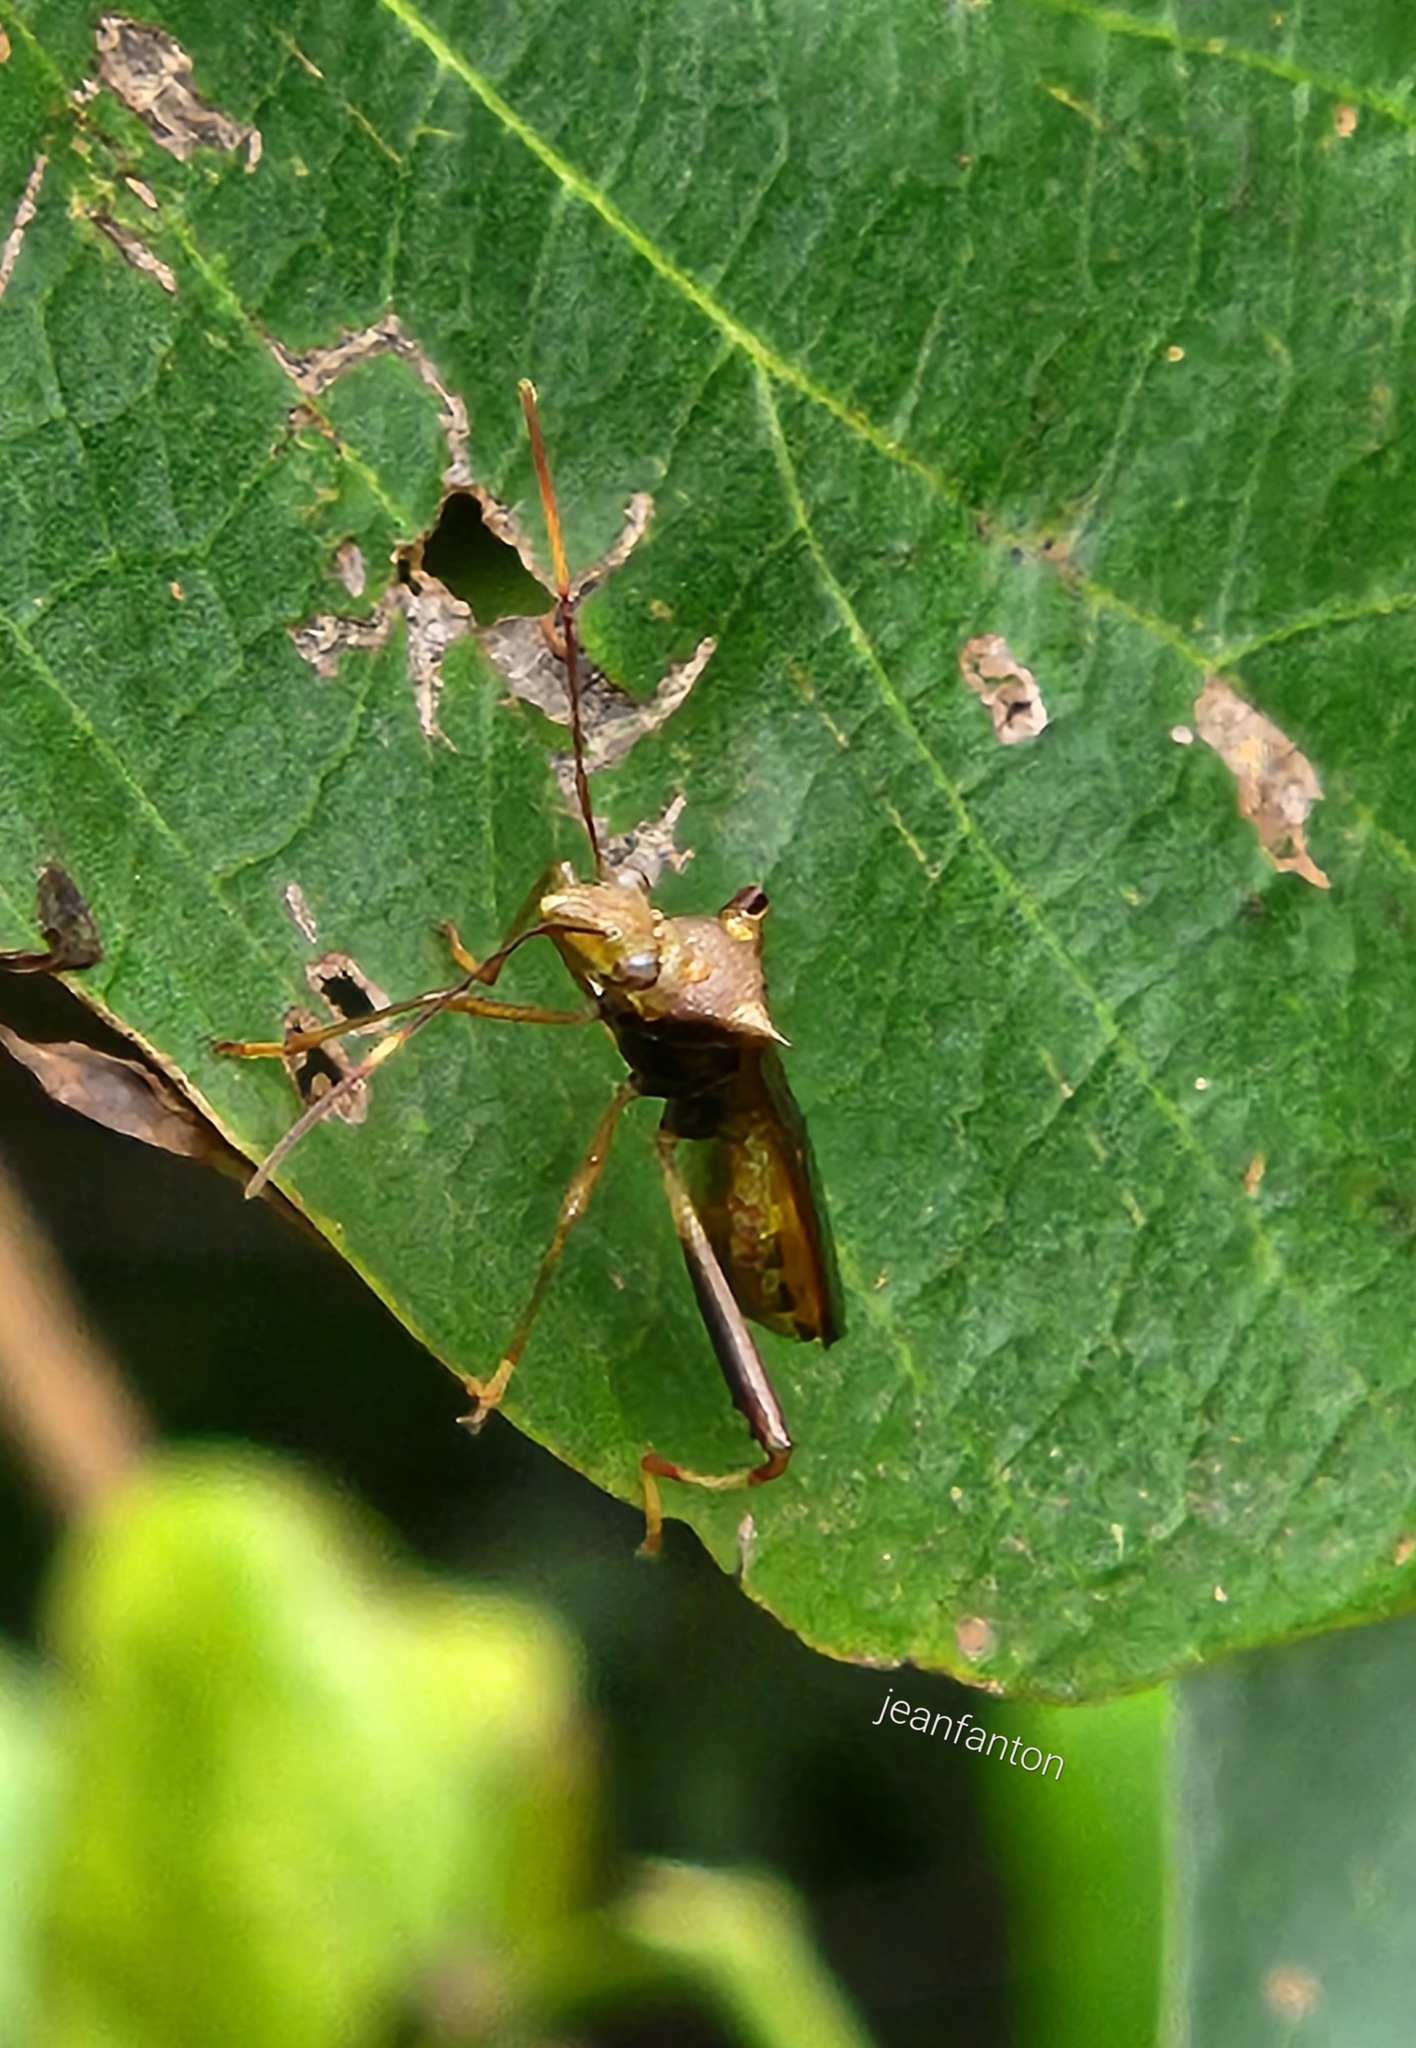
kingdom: Animalia
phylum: Arthropoda
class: Insecta
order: Hemiptera
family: Alydidae
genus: Neomegalotomus
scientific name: Neomegalotomus parvus
